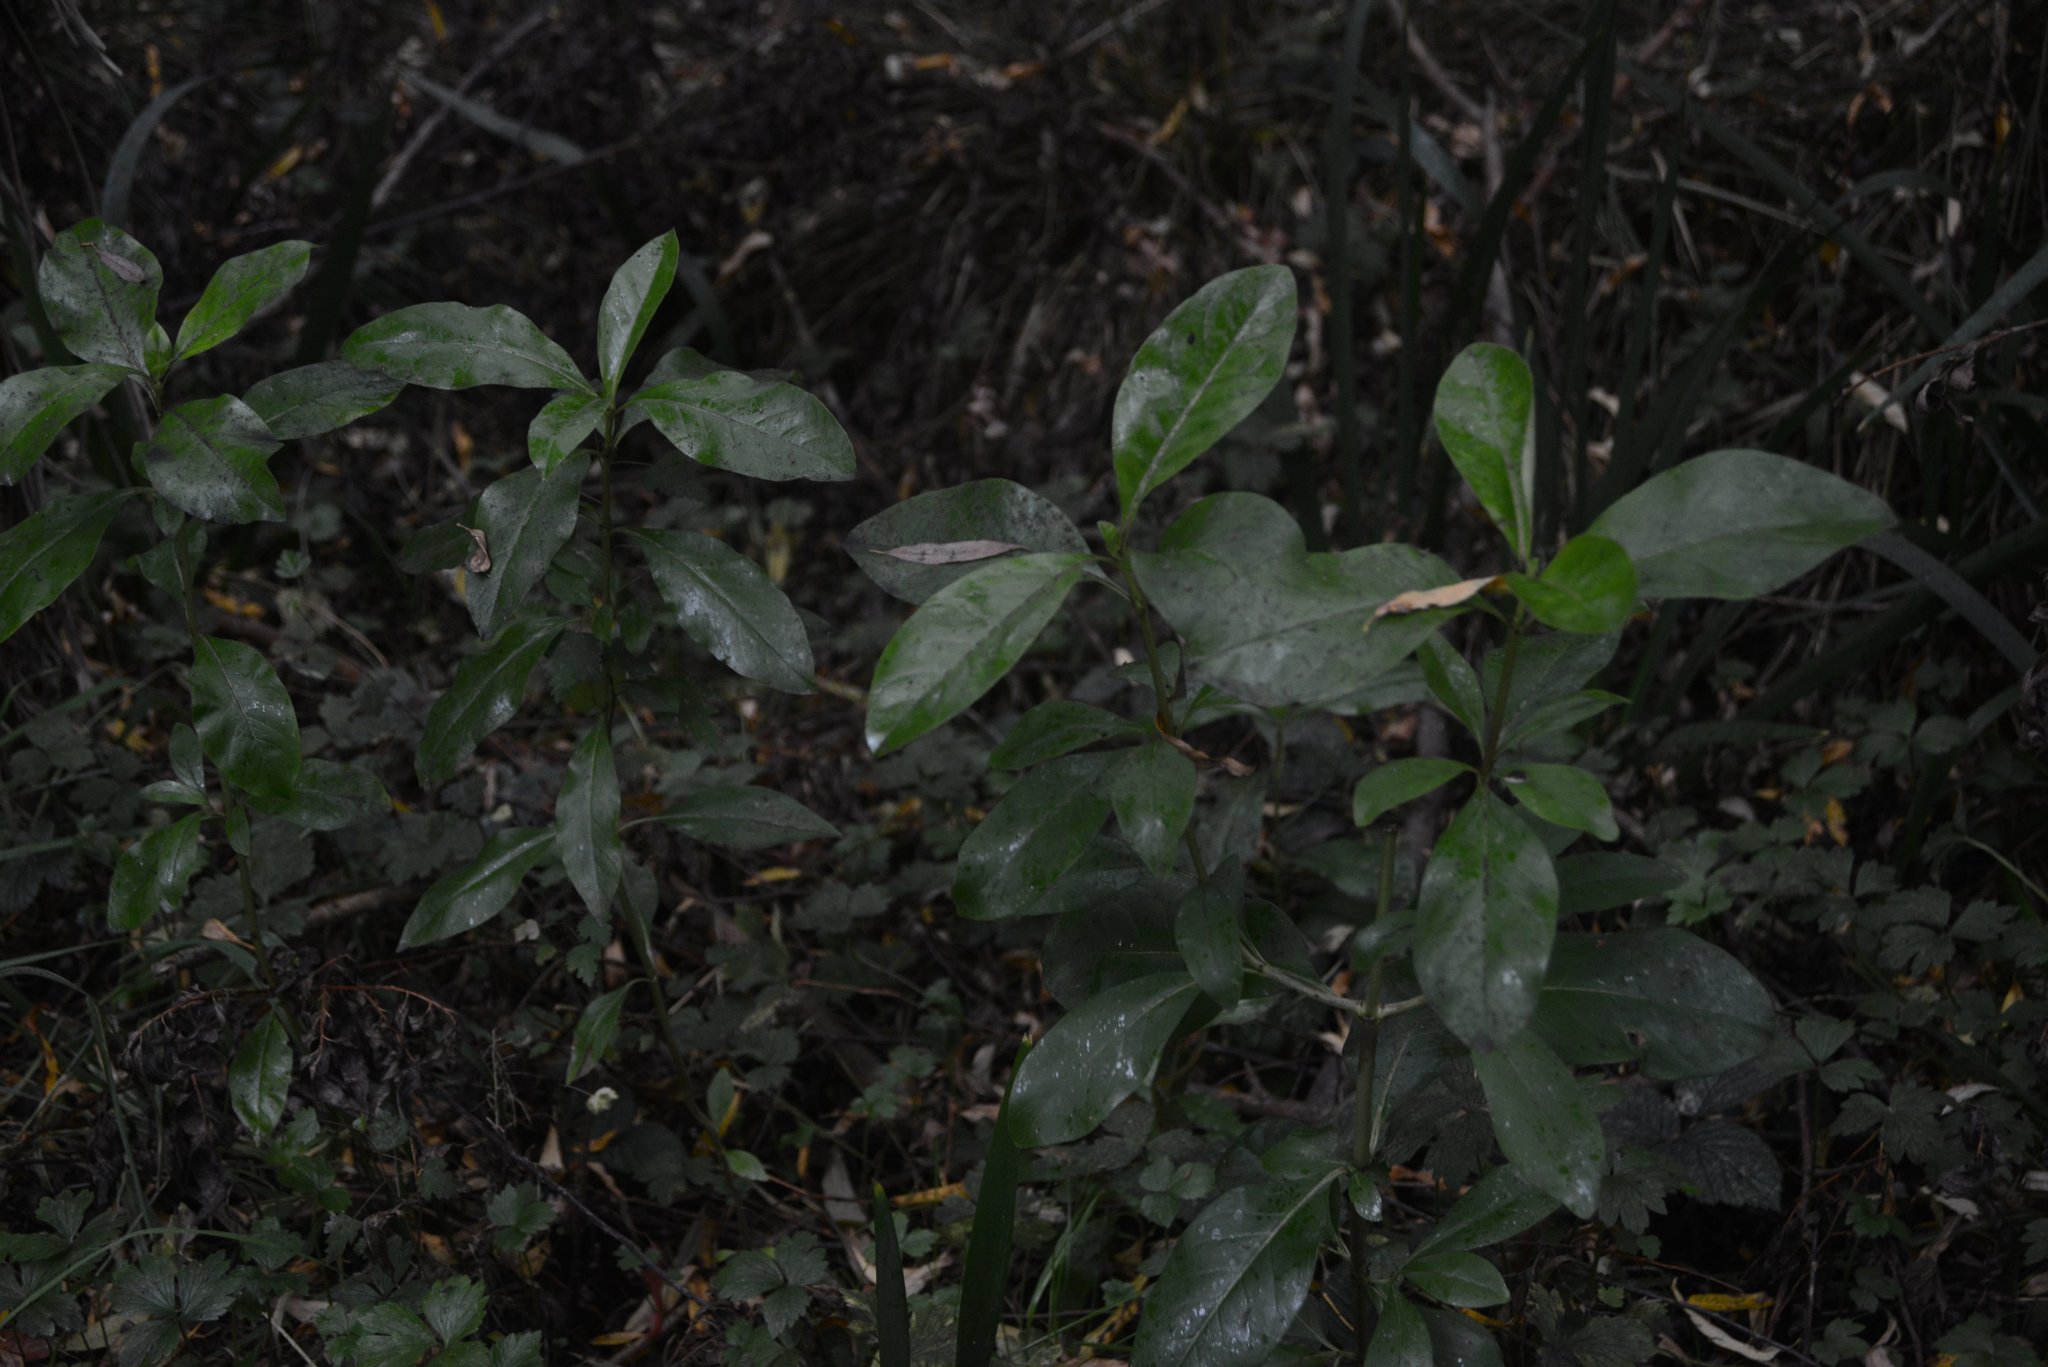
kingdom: Plantae
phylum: Tracheophyta
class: Magnoliopsida
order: Gentianales
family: Rubiaceae
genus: Coprosma
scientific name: Coprosma robusta
